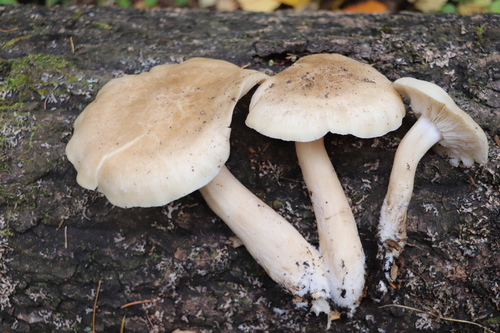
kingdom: Fungi
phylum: Basidiomycota
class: Agaricomycetes
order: Agaricales
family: Lyophyllaceae
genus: Hypsizygus
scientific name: Hypsizygus ulmarius
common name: Elm leech
